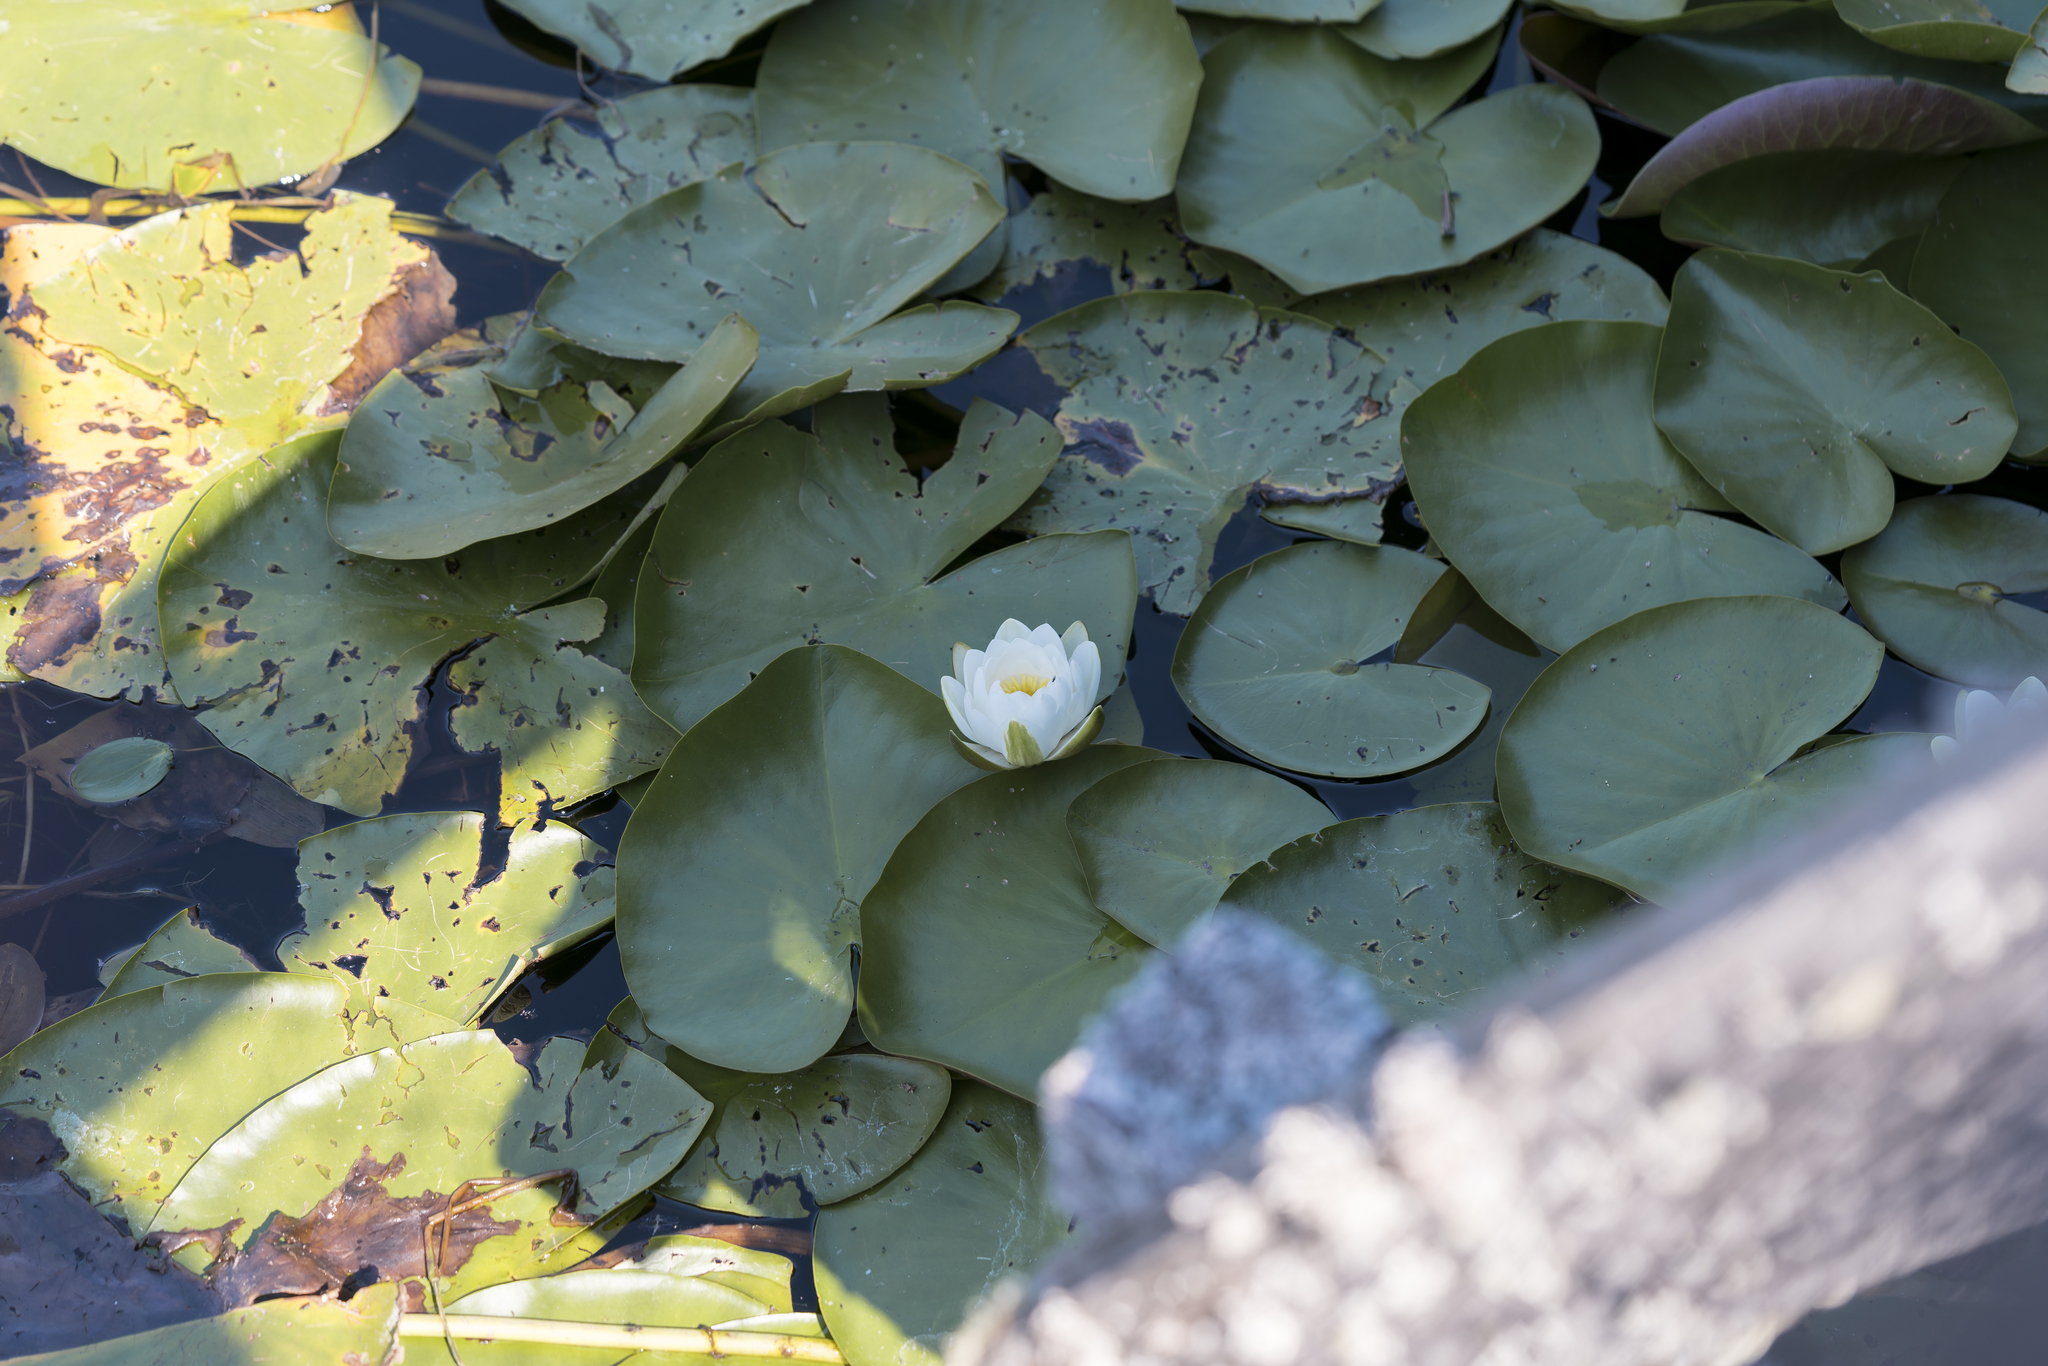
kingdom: Plantae
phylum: Tracheophyta
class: Magnoliopsida
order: Nymphaeales
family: Nymphaeaceae
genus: Nymphaea
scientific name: Nymphaea alba
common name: White water-lily
